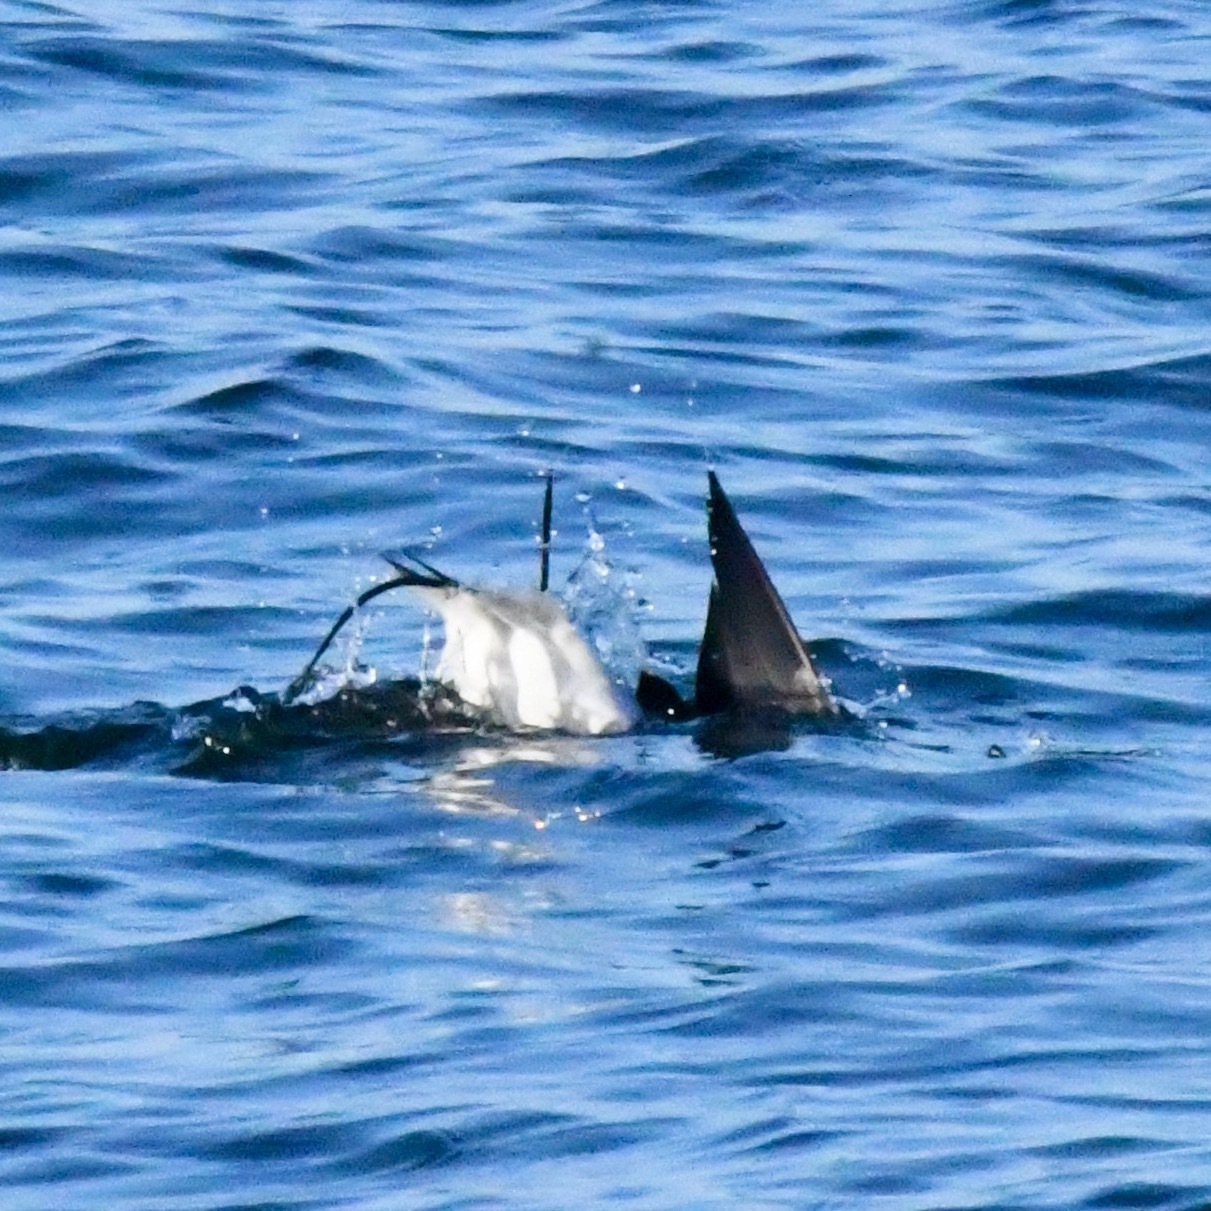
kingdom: Animalia
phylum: Chordata
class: Aves
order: Anseriformes
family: Anatidae
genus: Clangula
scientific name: Clangula hyemalis
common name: Long-tailed duck
